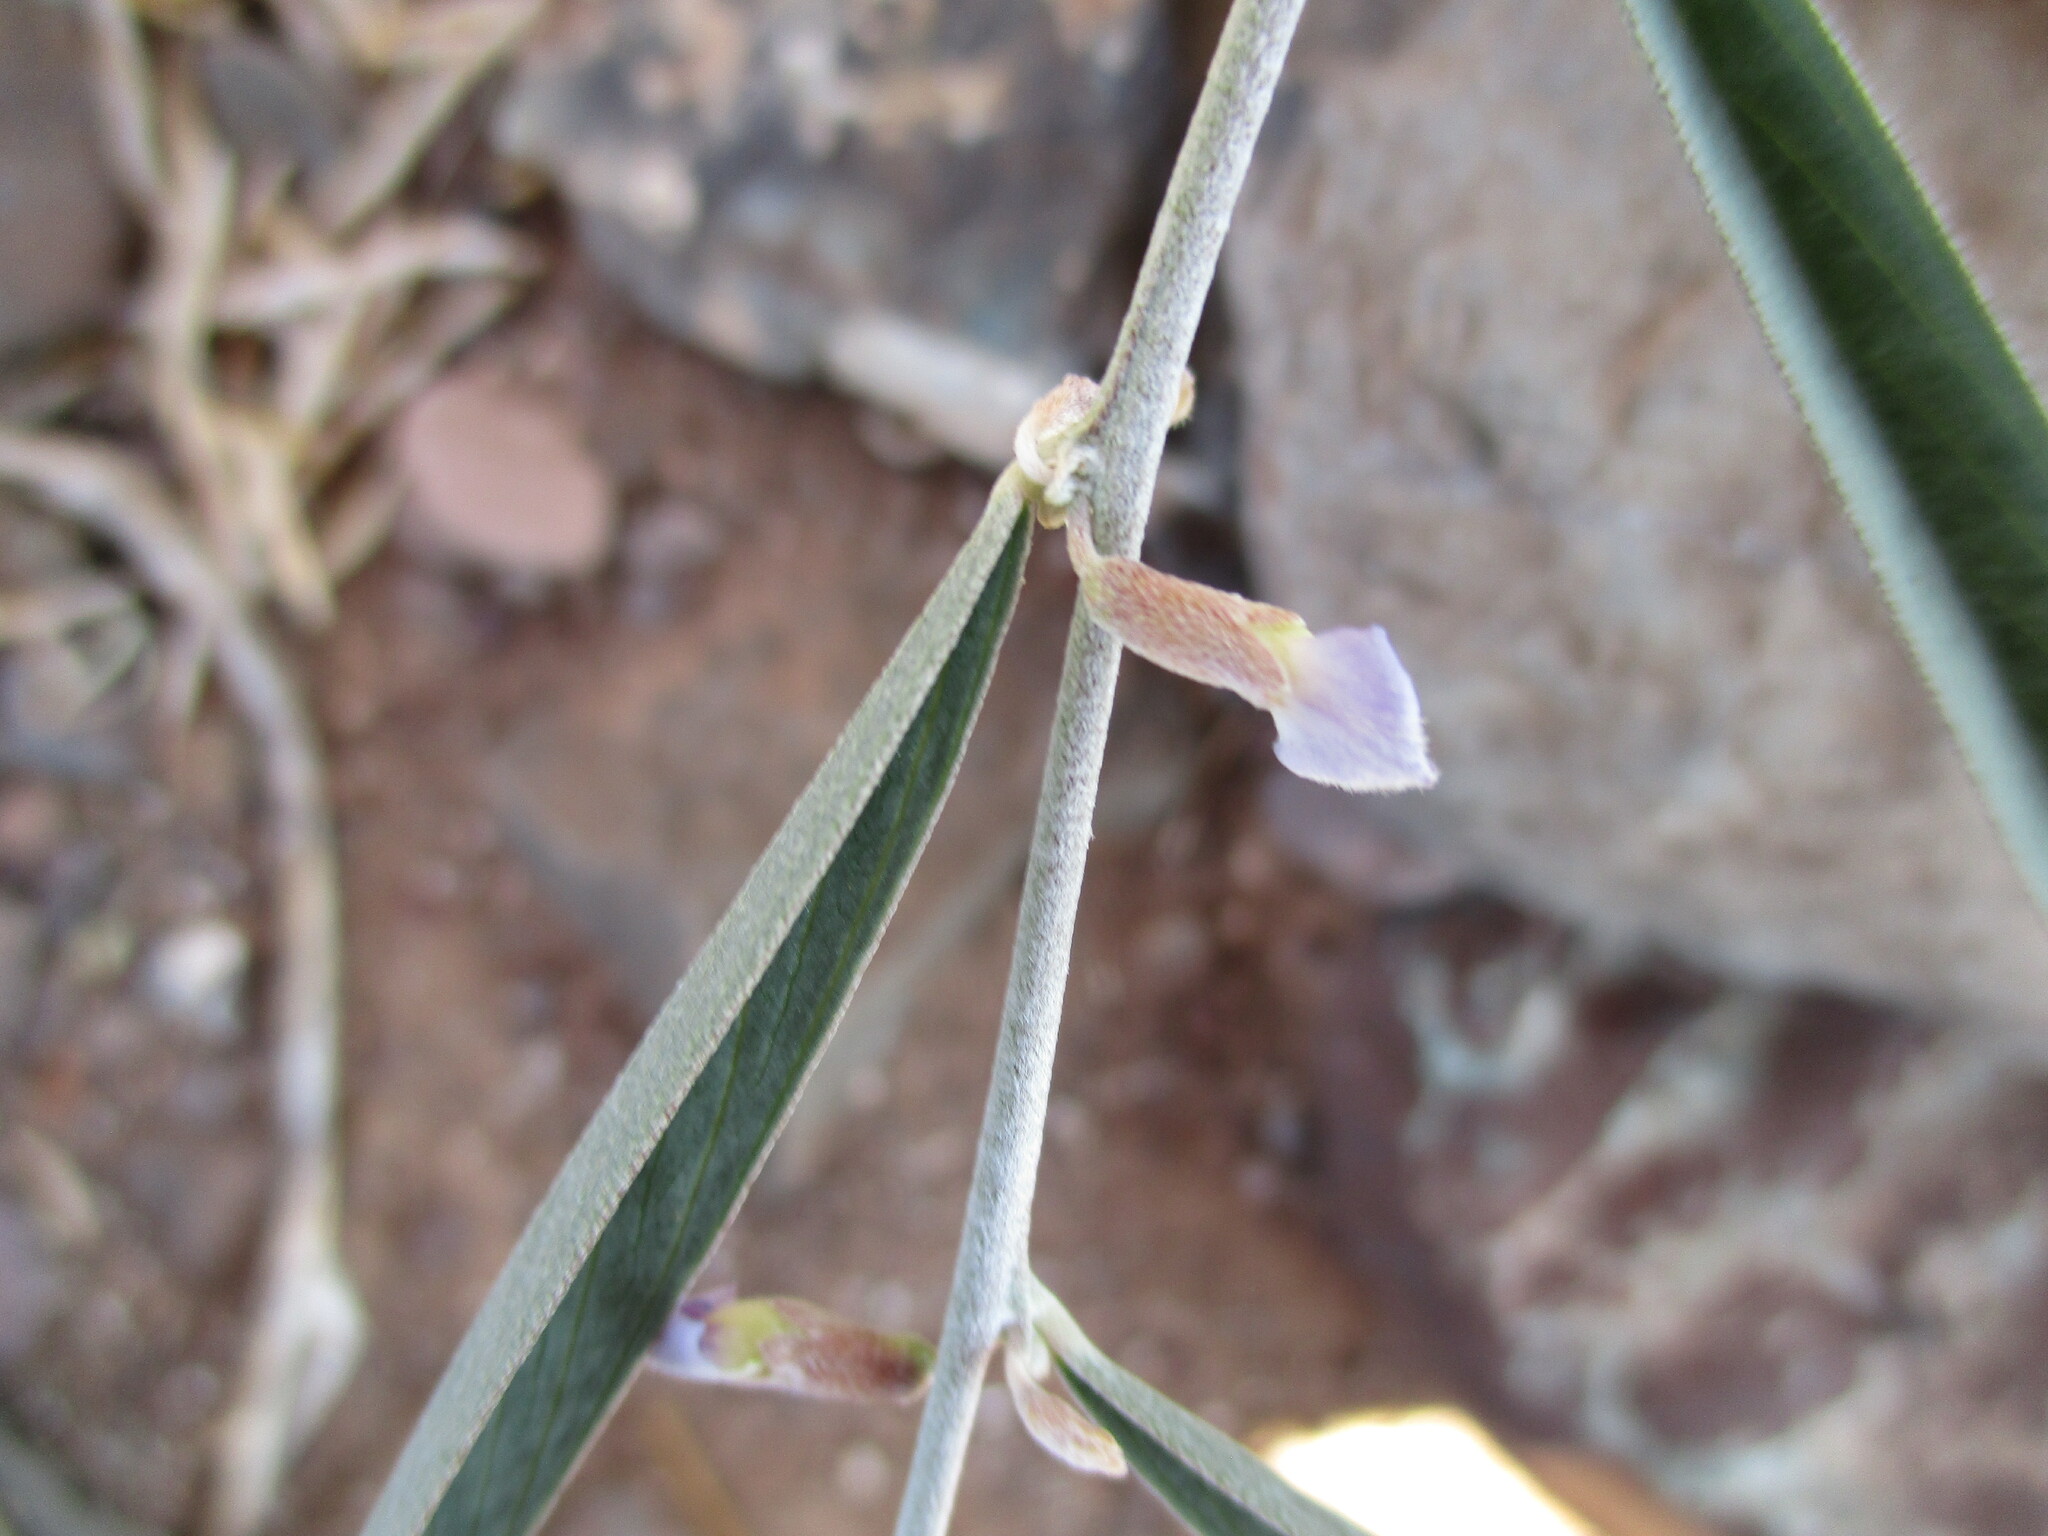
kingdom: Plantae
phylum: Tracheophyta
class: Magnoliopsida
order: Fabales
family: Fabaceae
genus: Ptycholobium
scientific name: Ptycholobium biflorum
